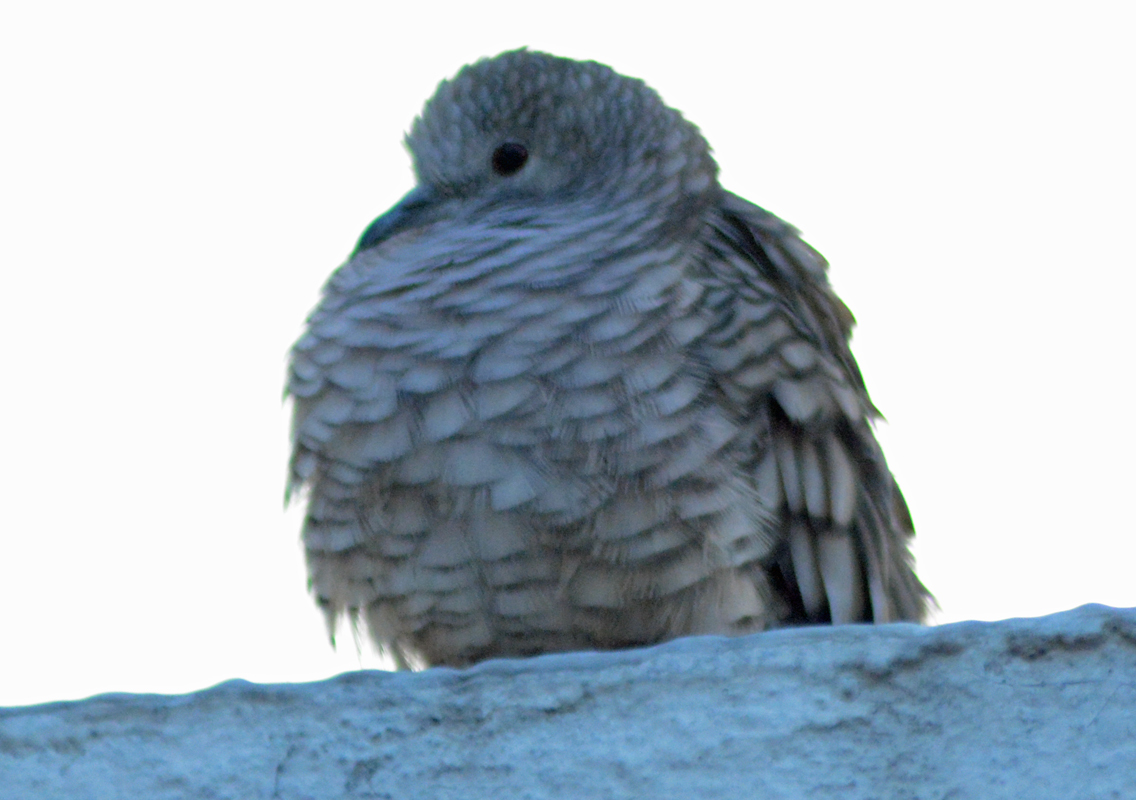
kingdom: Animalia
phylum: Chordata
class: Aves
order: Columbiformes
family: Columbidae
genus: Columbina
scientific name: Columbina inca
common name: Inca dove
